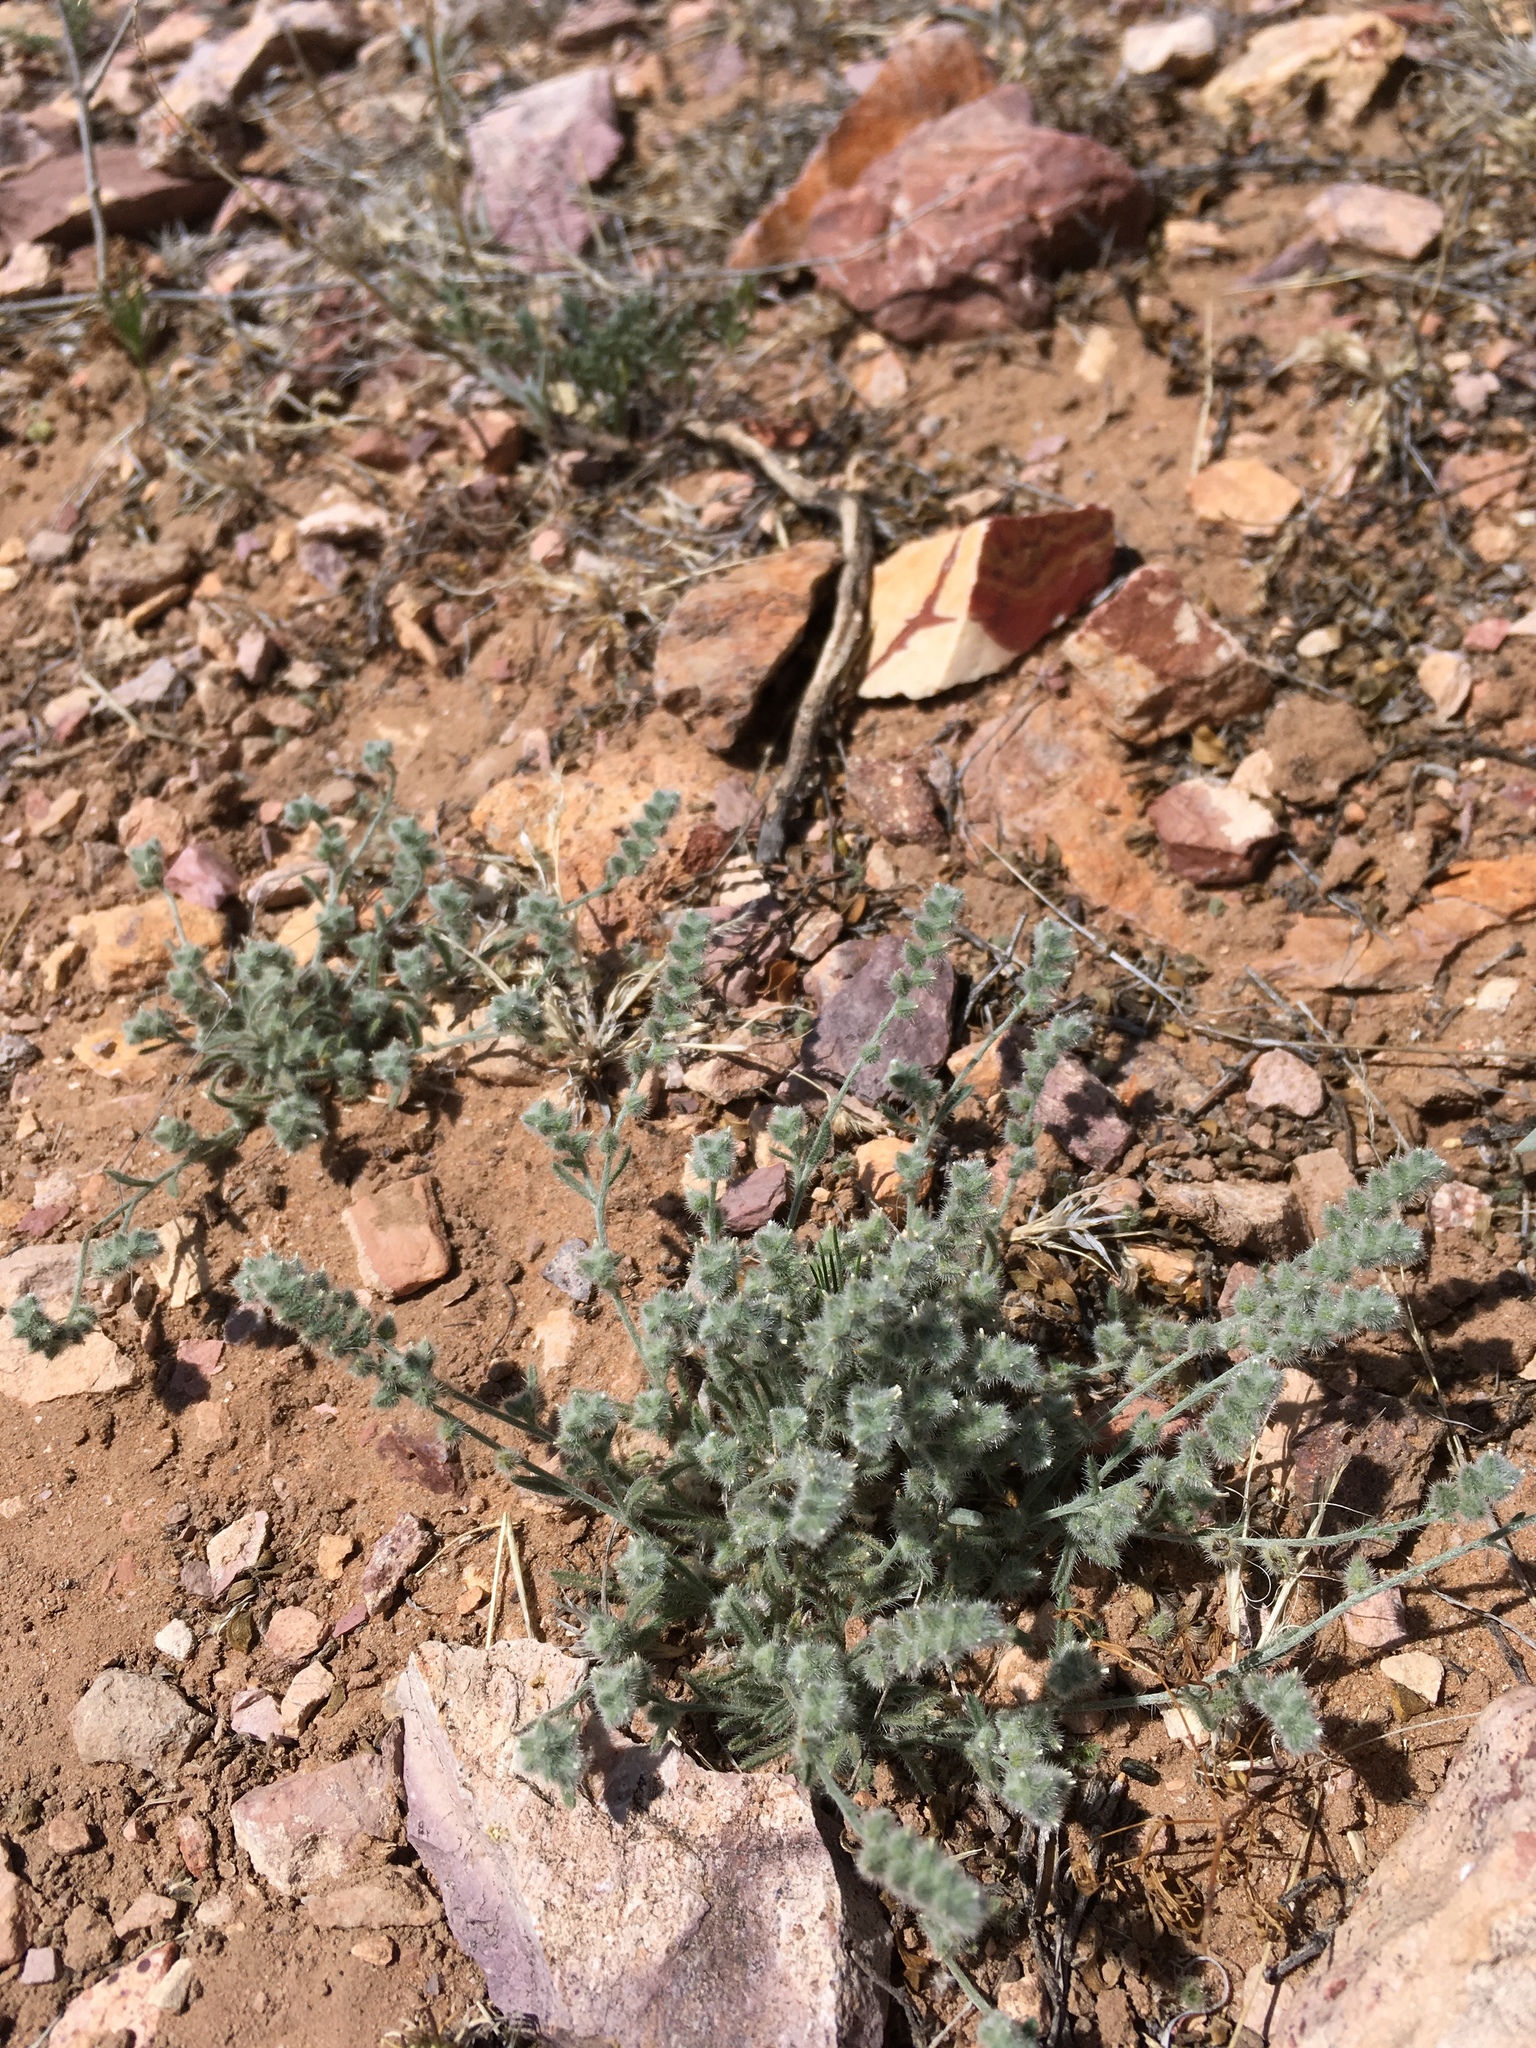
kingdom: Plantae
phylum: Tracheophyta
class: Magnoliopsida
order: Boraginales
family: Boraginaceae
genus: Johnstonella
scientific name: Johnstonella pusilla
